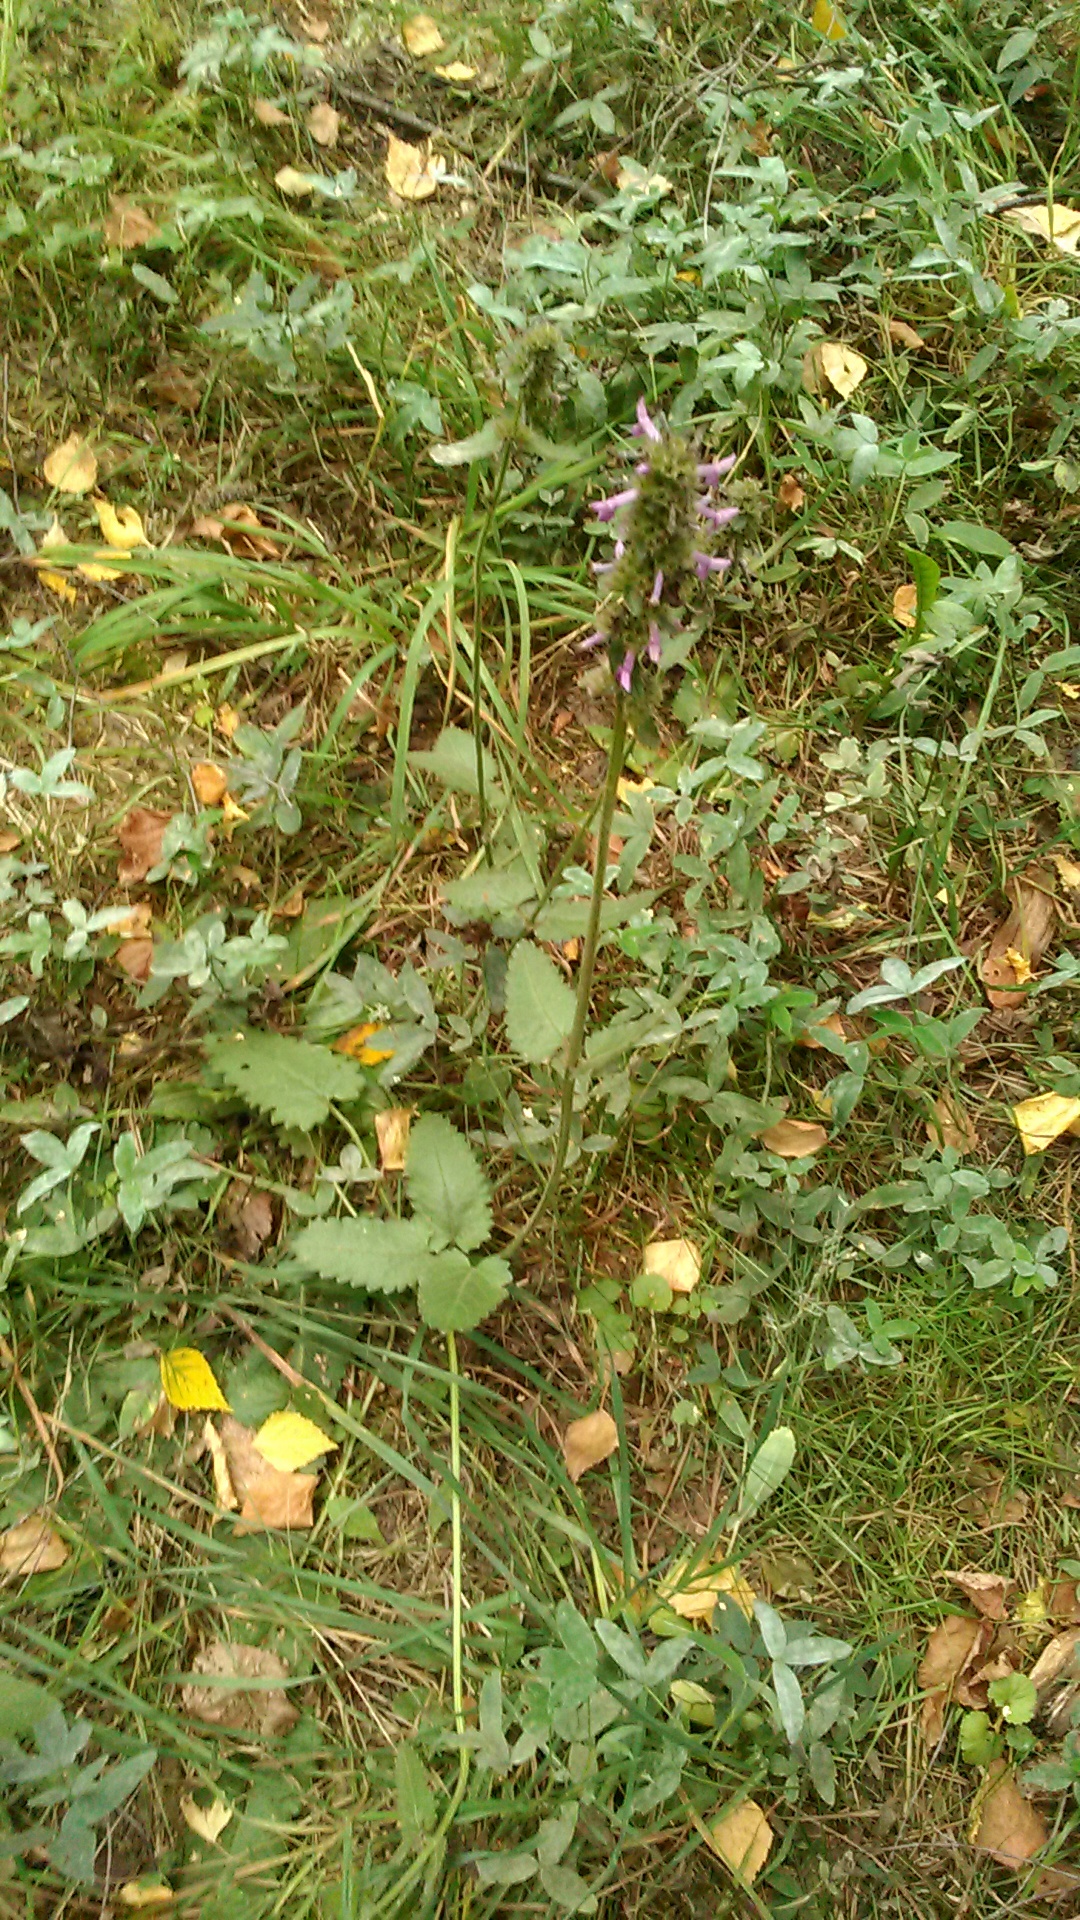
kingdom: Plantae
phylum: Tracheophyta
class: Magnoliopsida
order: Lamiales
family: Lamiaceae
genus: Betonica
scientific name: Betonica officinalis
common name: Bishop's-wort
